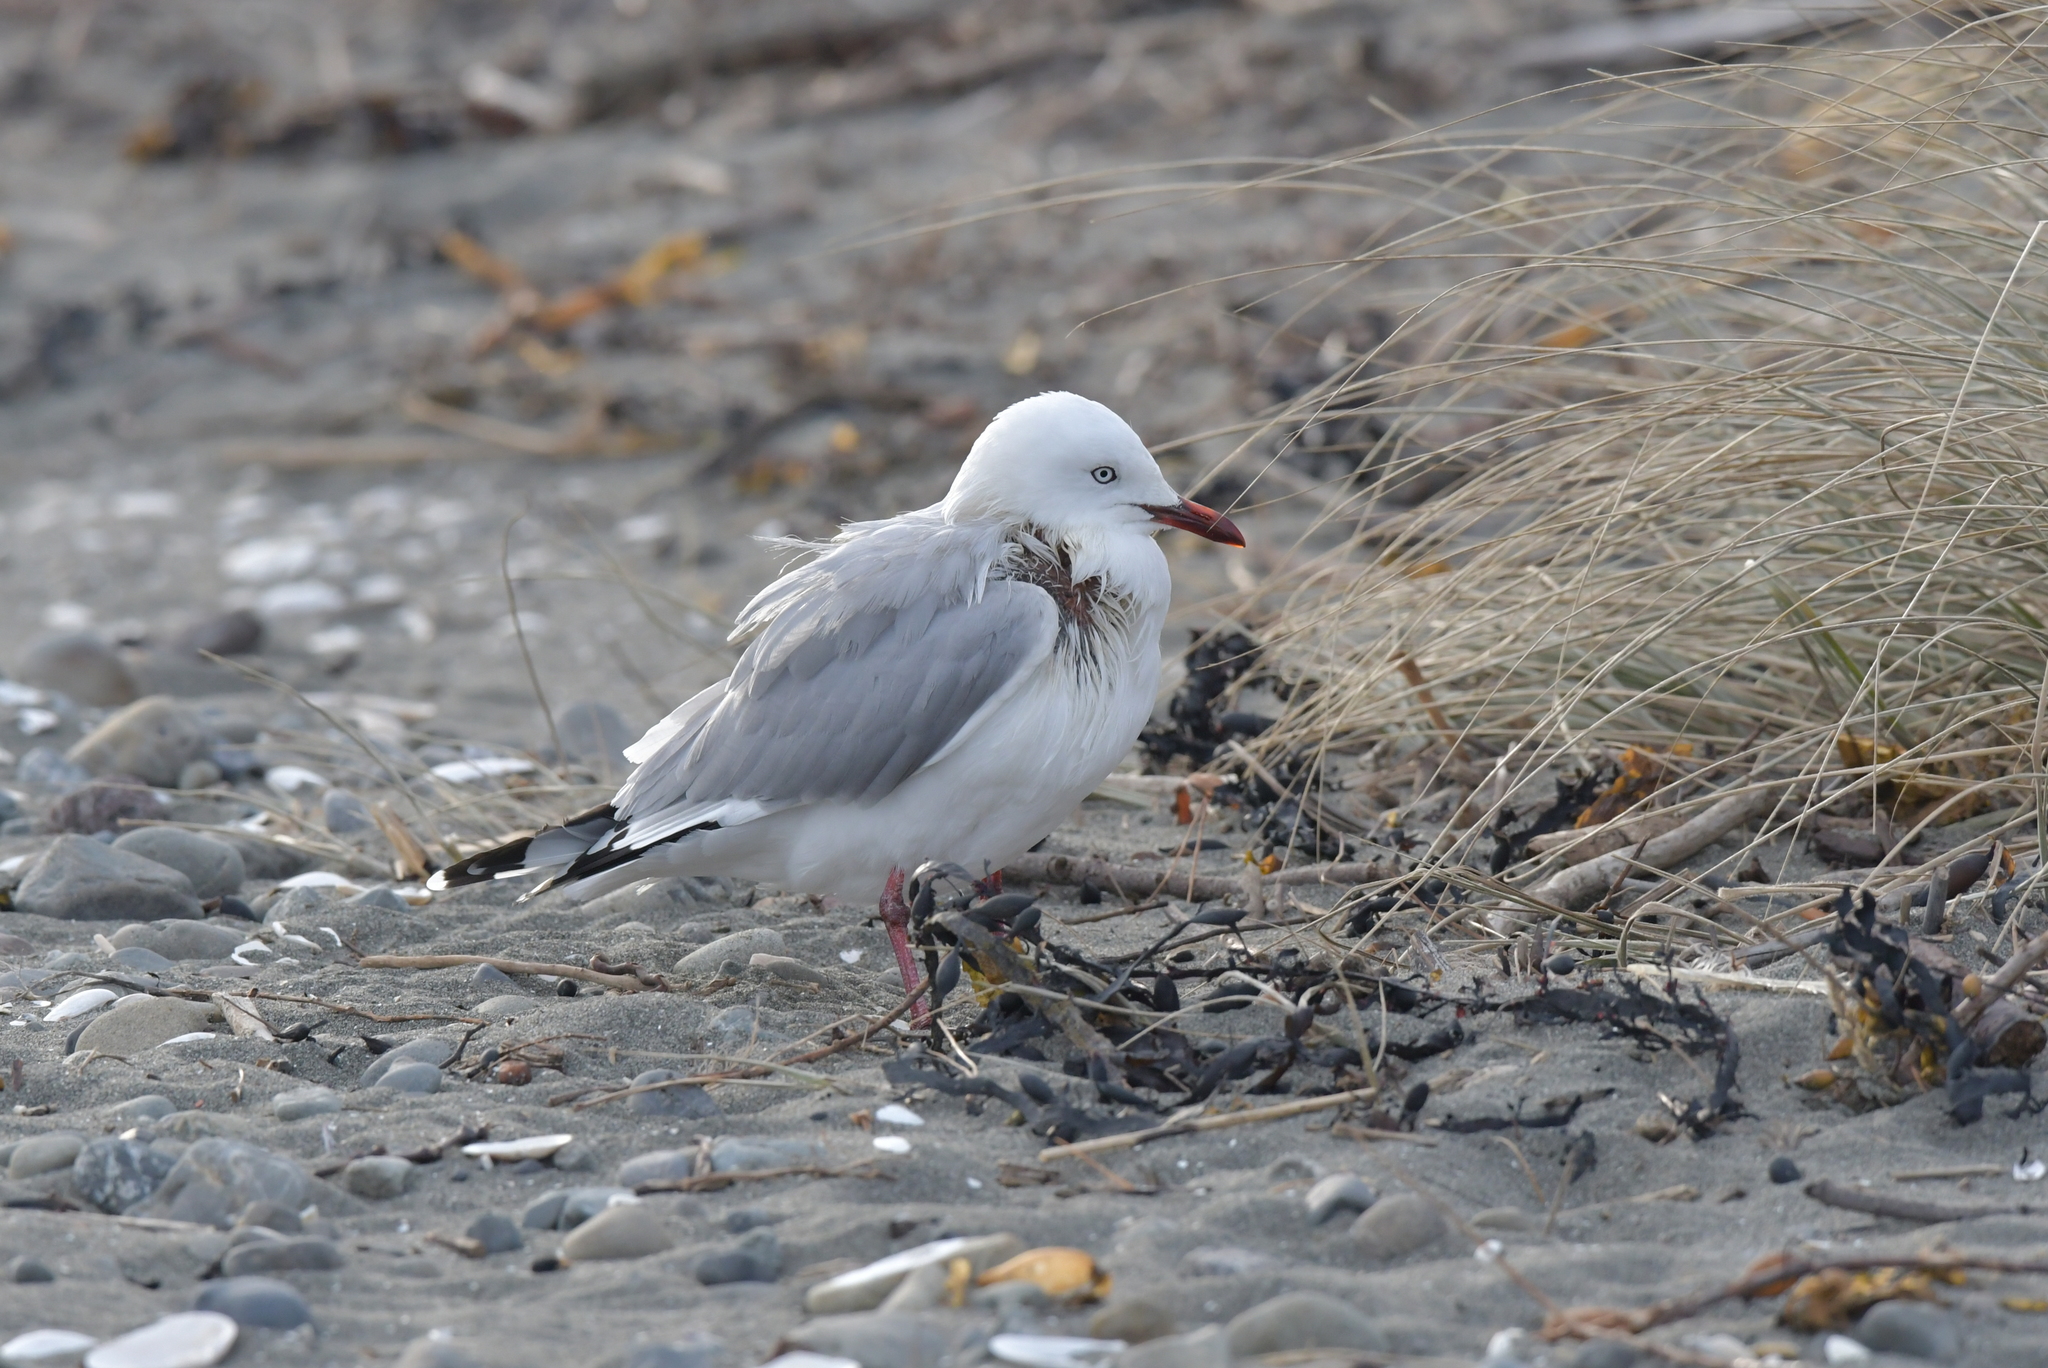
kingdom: Animalia
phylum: Chordata
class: Aves
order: Charadriiformes
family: Laridae
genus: Chroicocephalus
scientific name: Chroicocephalus novaehollandiae
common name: Silver gull
